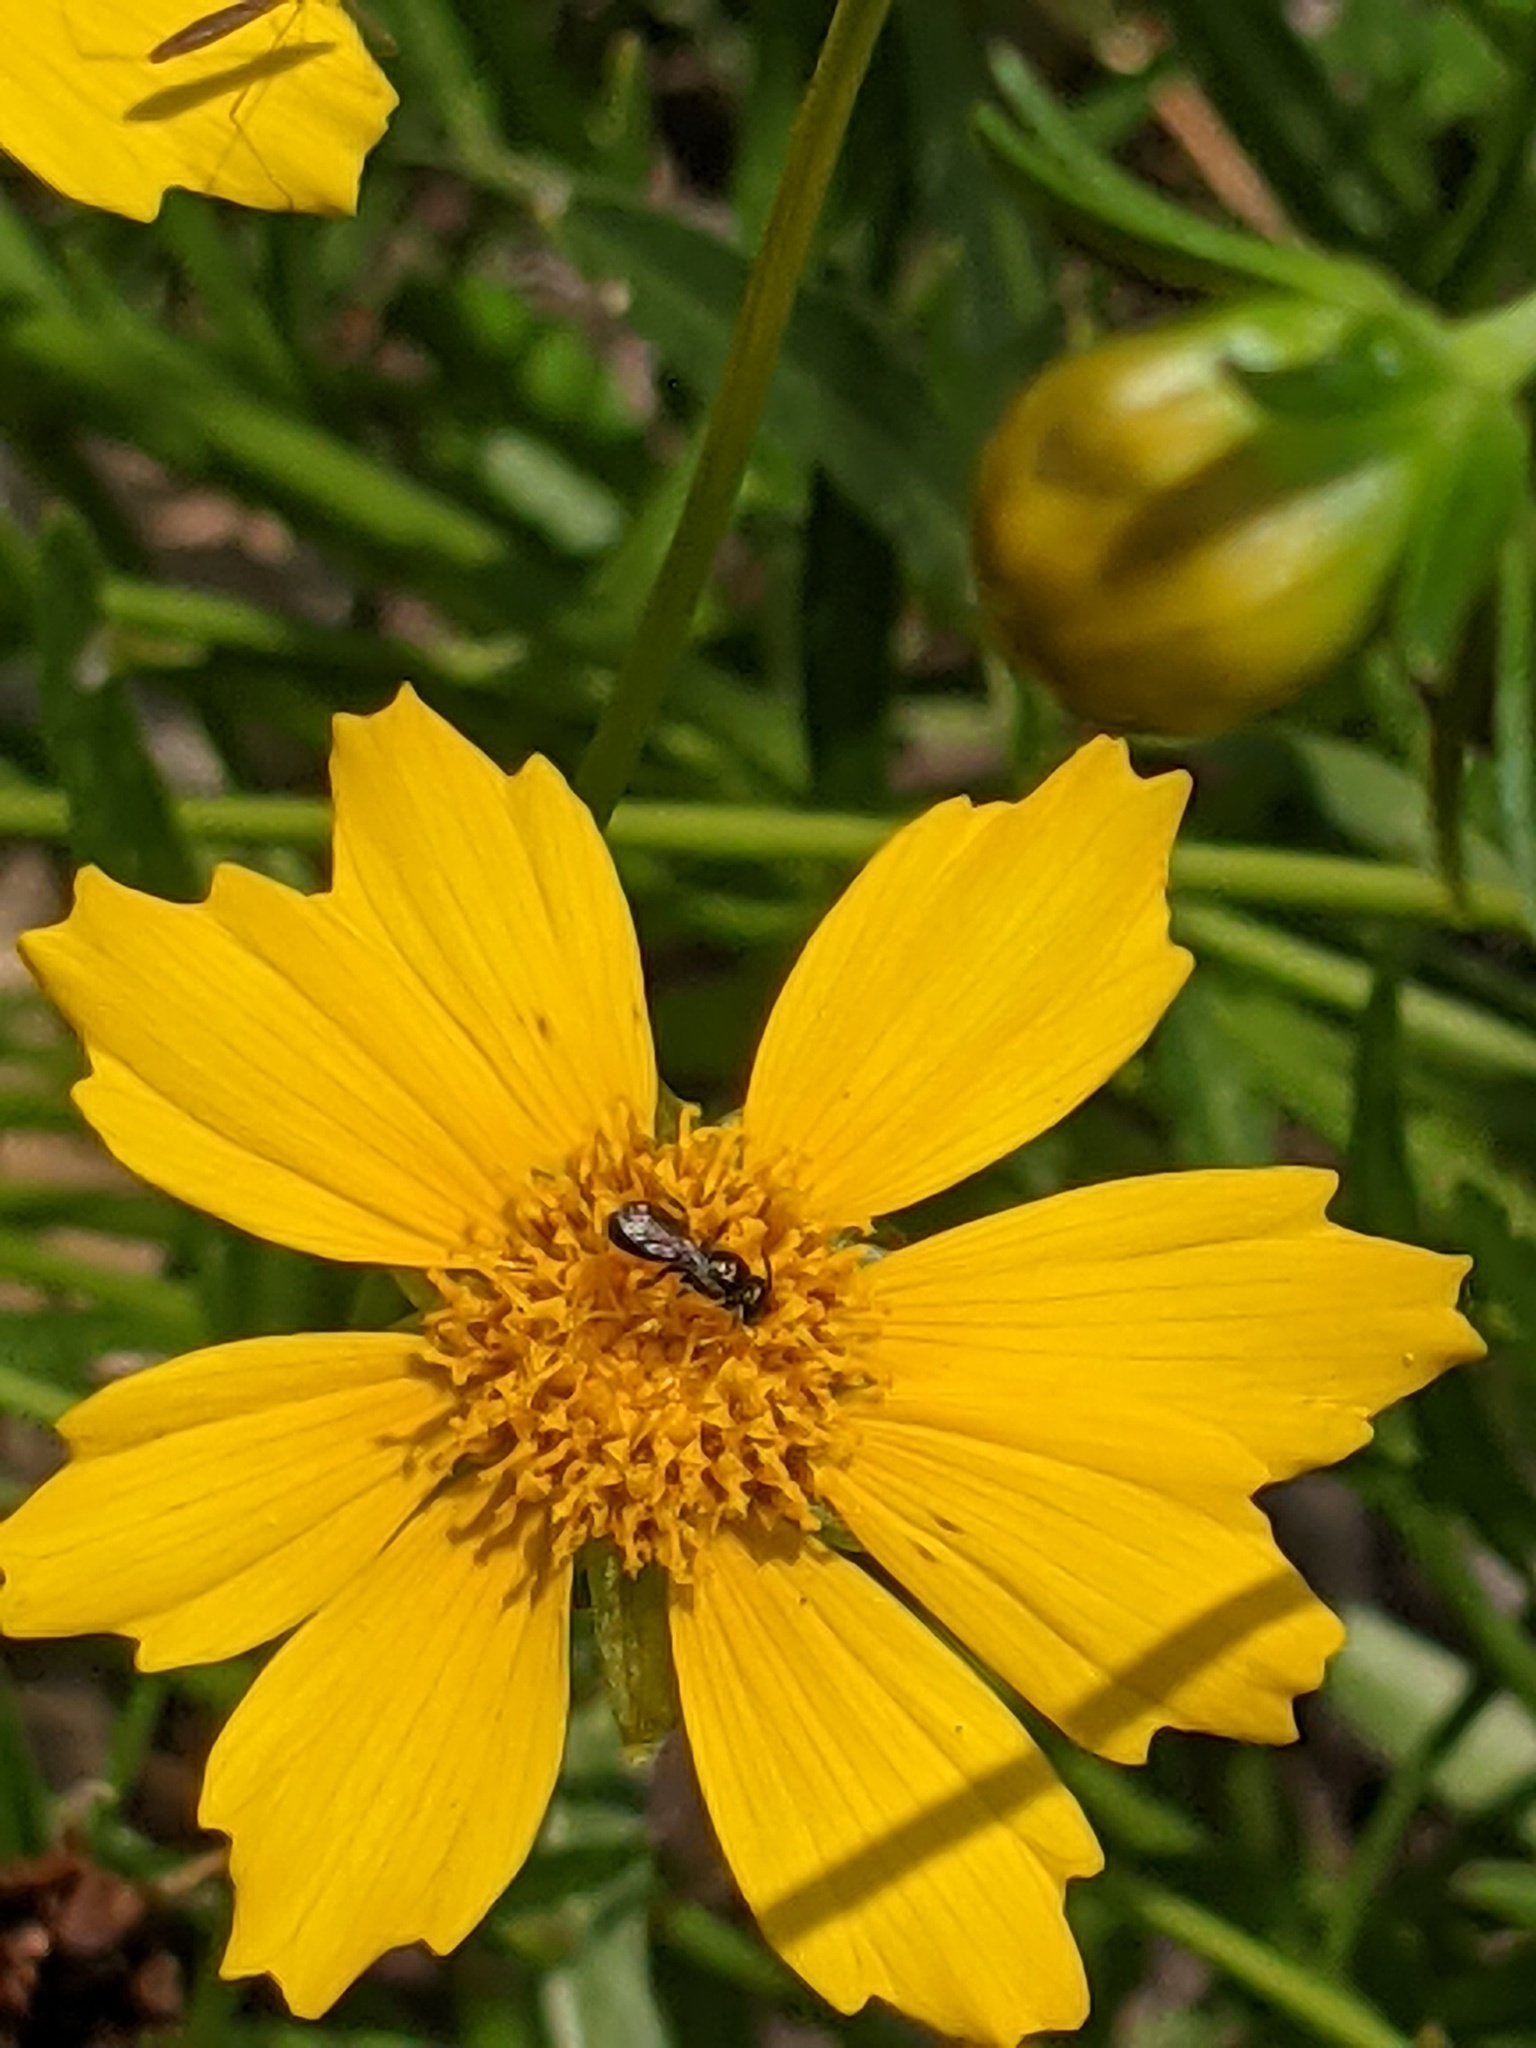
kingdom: Animalia
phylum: Arthropoda
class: Insecta
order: Hymenoptera
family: Apidae
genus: Zadontomerus
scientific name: Zadontomerus
